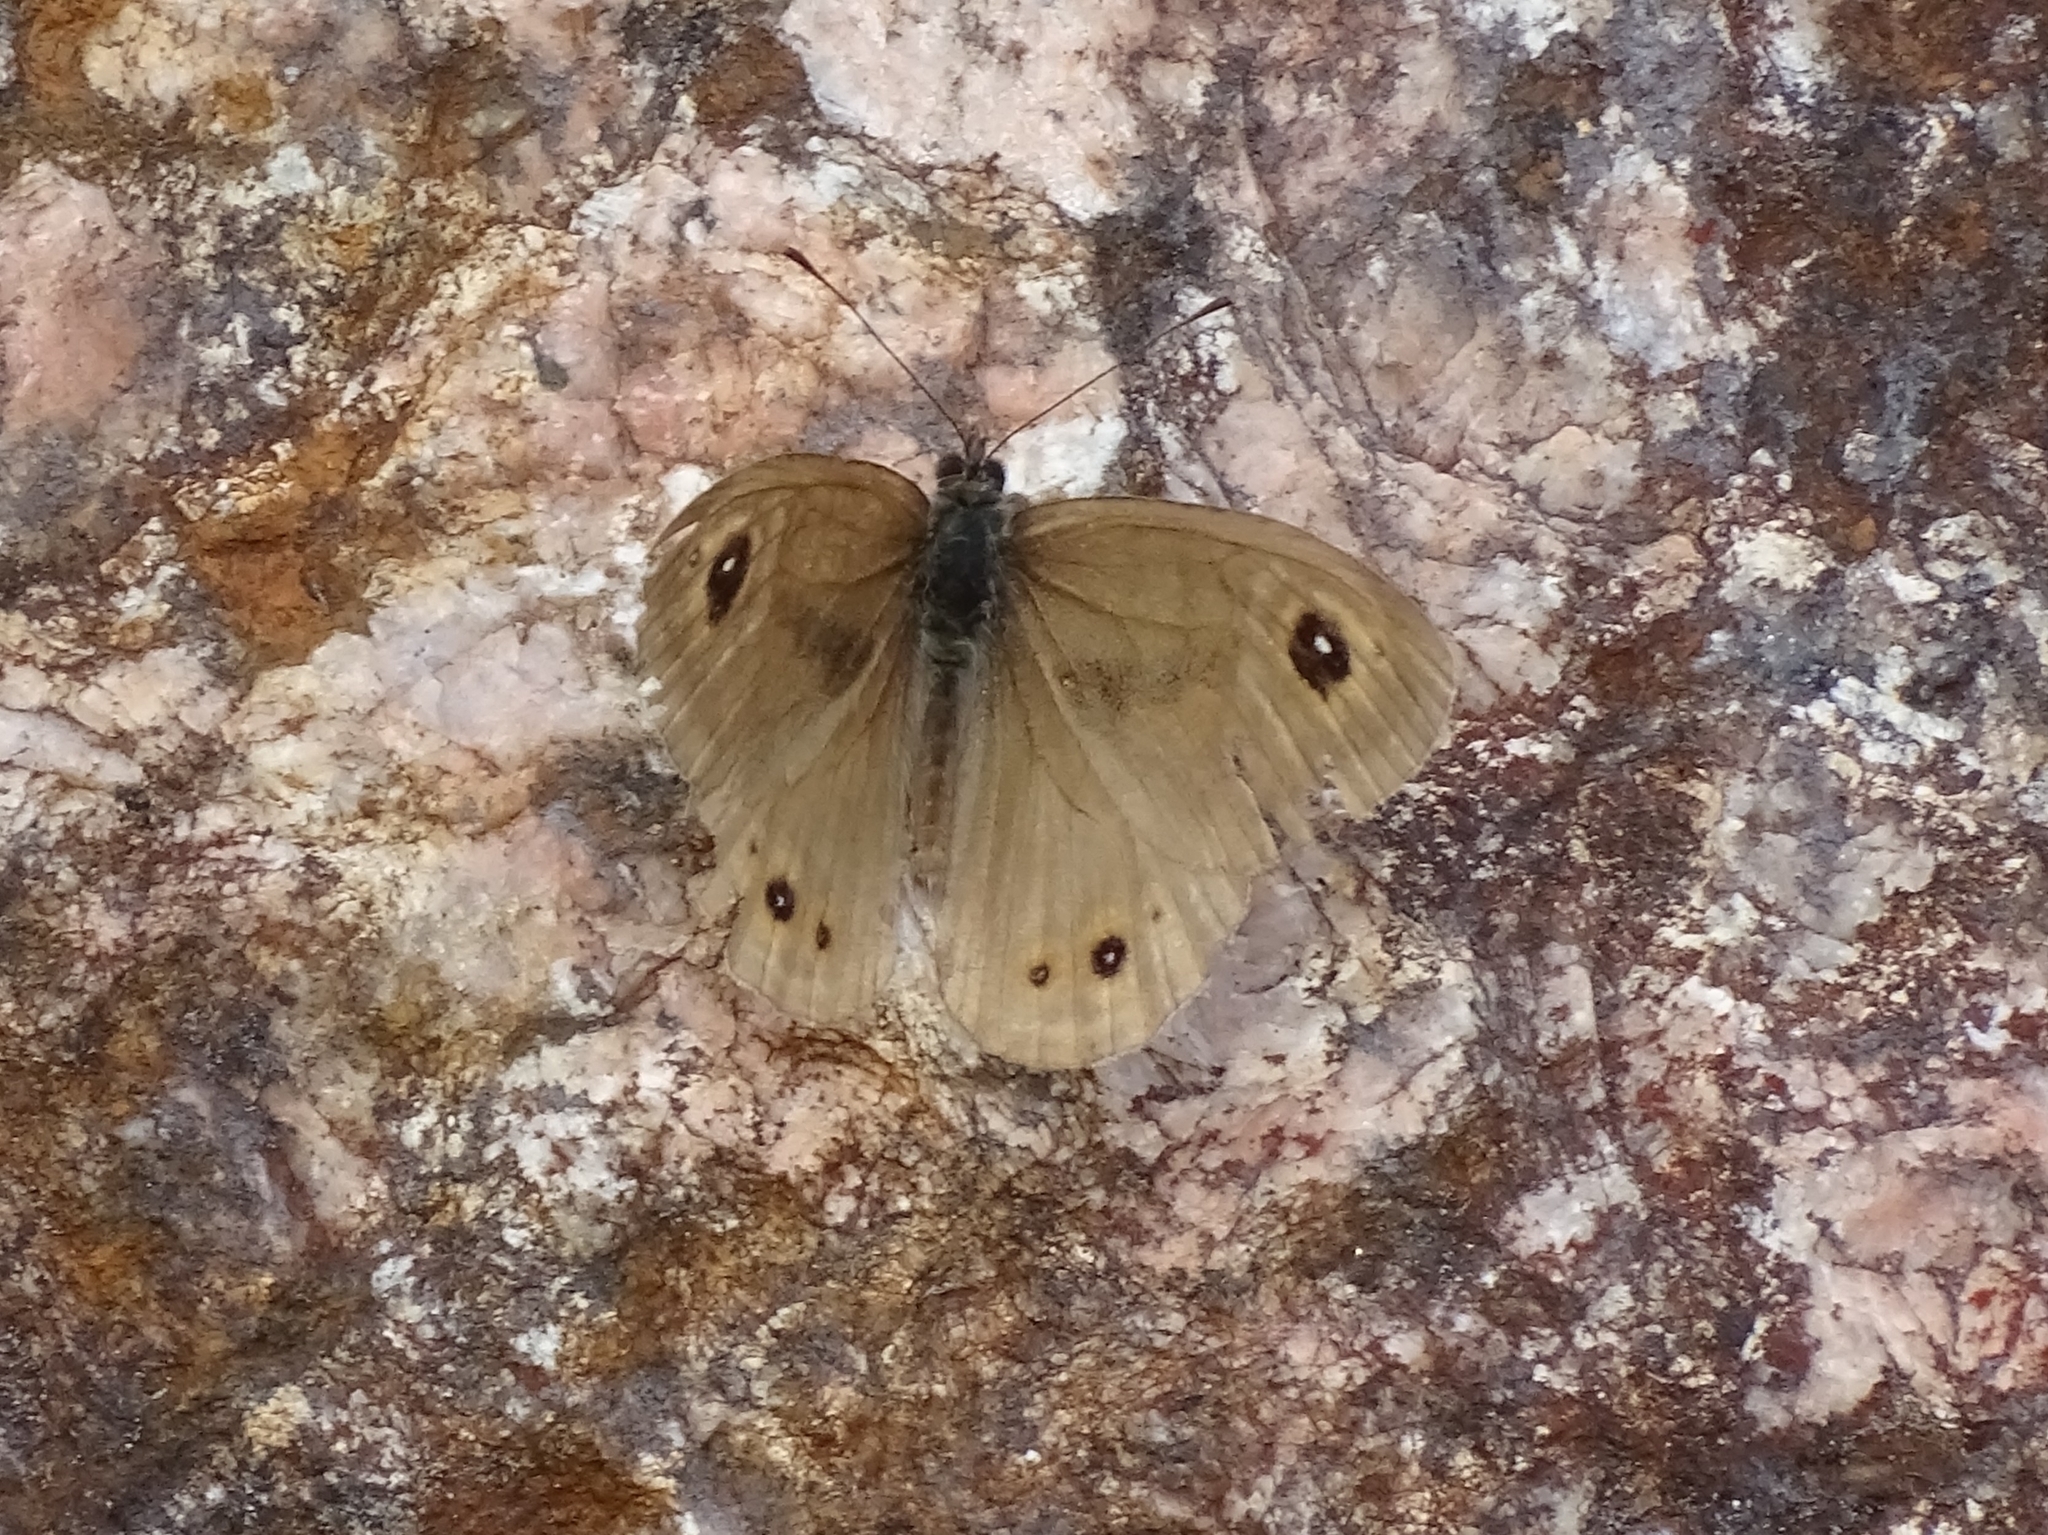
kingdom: Animalia
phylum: Arthropoda
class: Insecta
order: Lepidoptera
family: Nymphalidae
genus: Pararge
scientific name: Pararge Lasiommata maera
